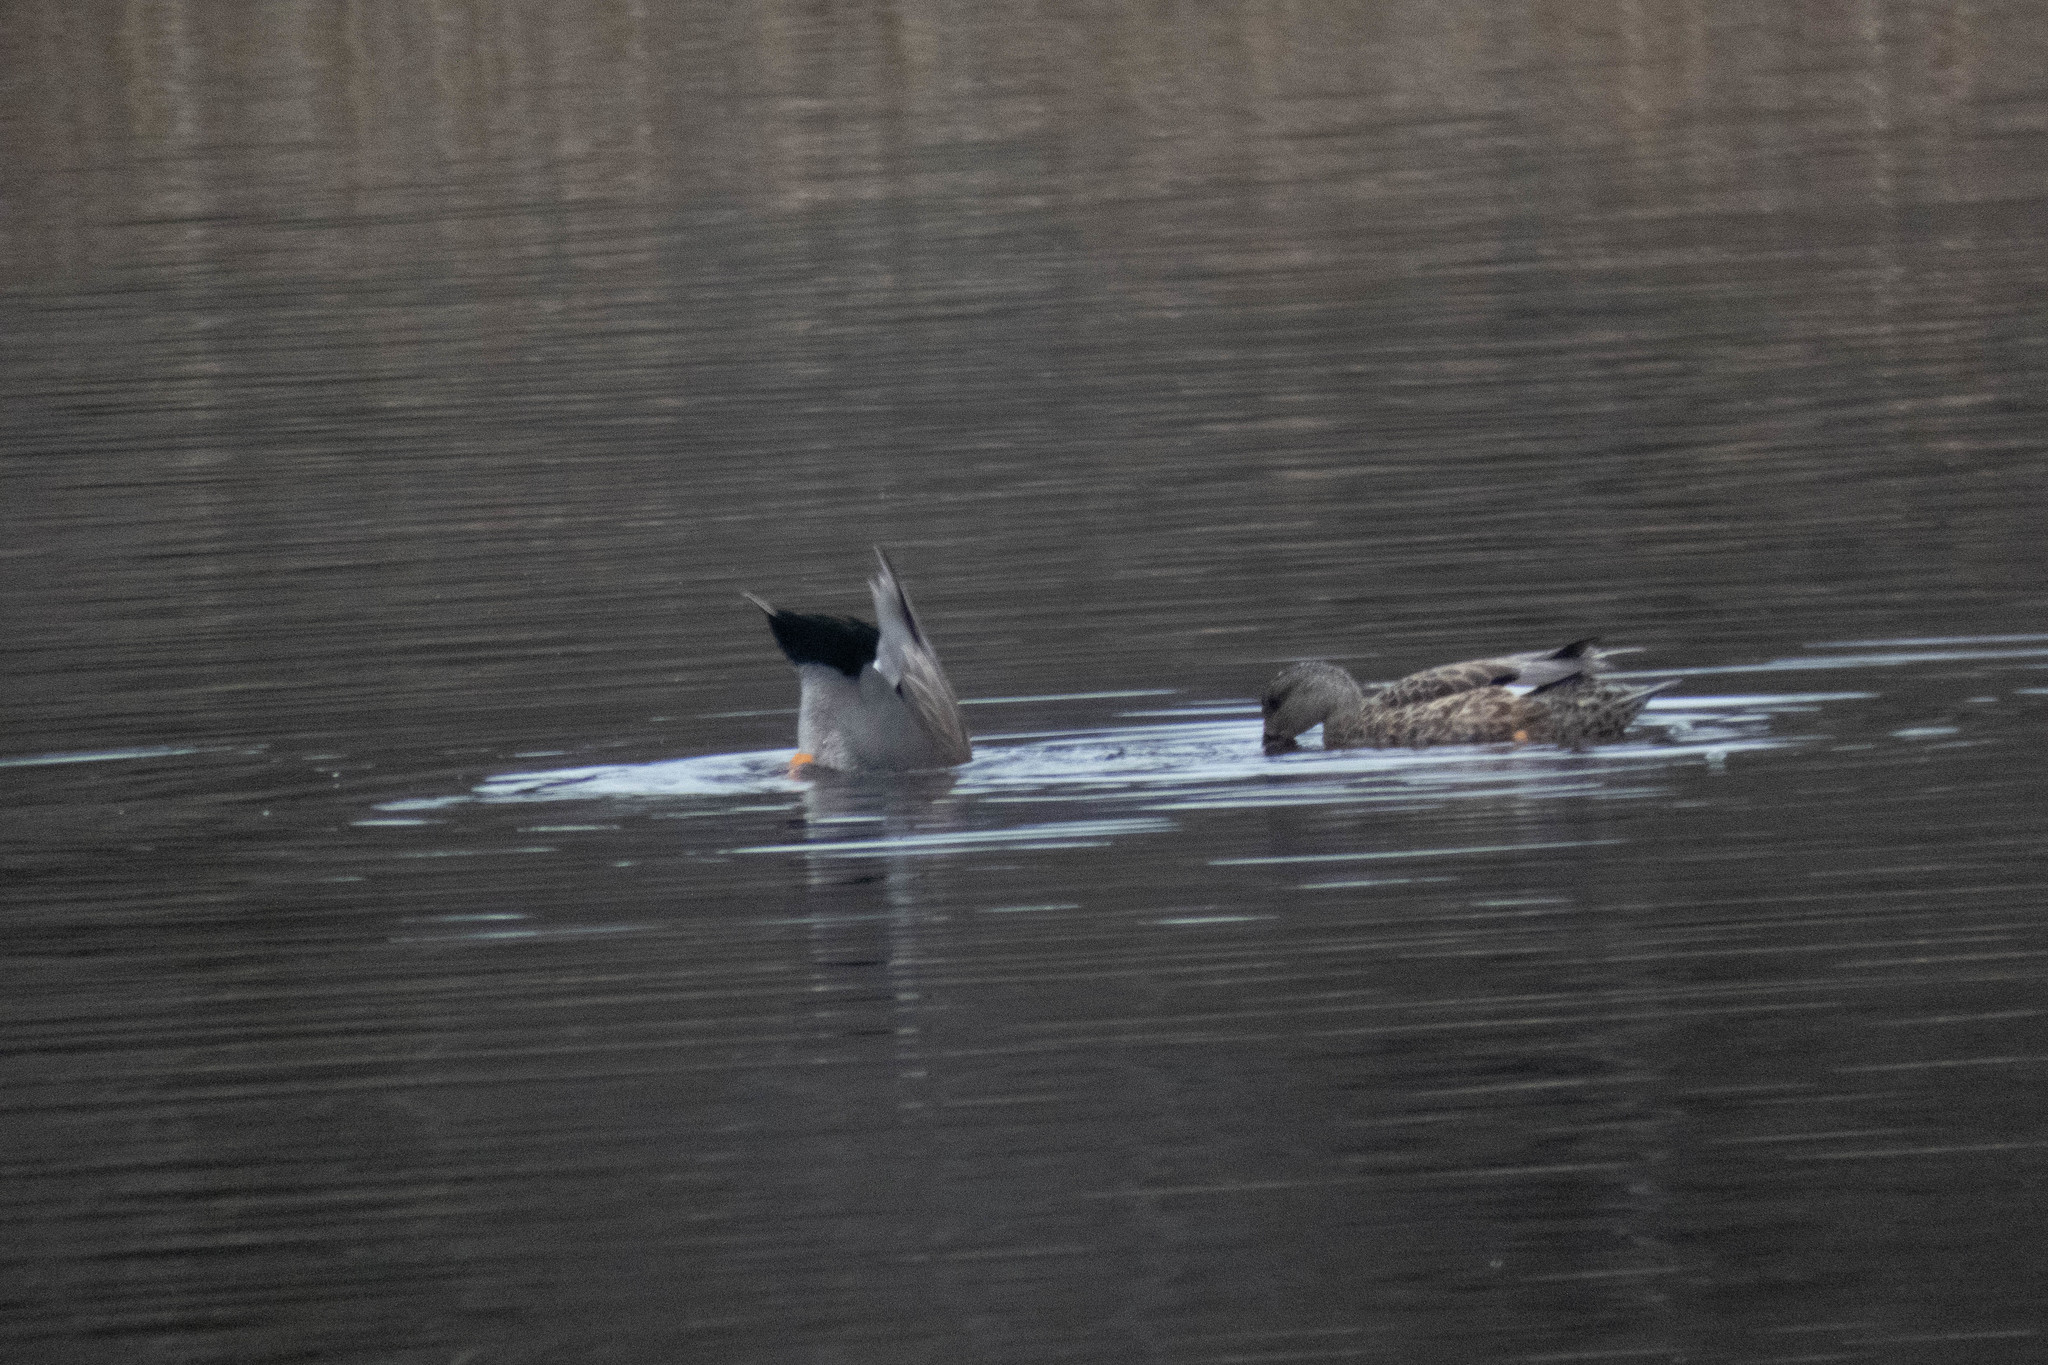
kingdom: Animalia
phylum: Chordata
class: Aves
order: Anseriformes
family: Anatidae
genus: Mareca
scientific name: Mareca strepera
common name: Gadwall
